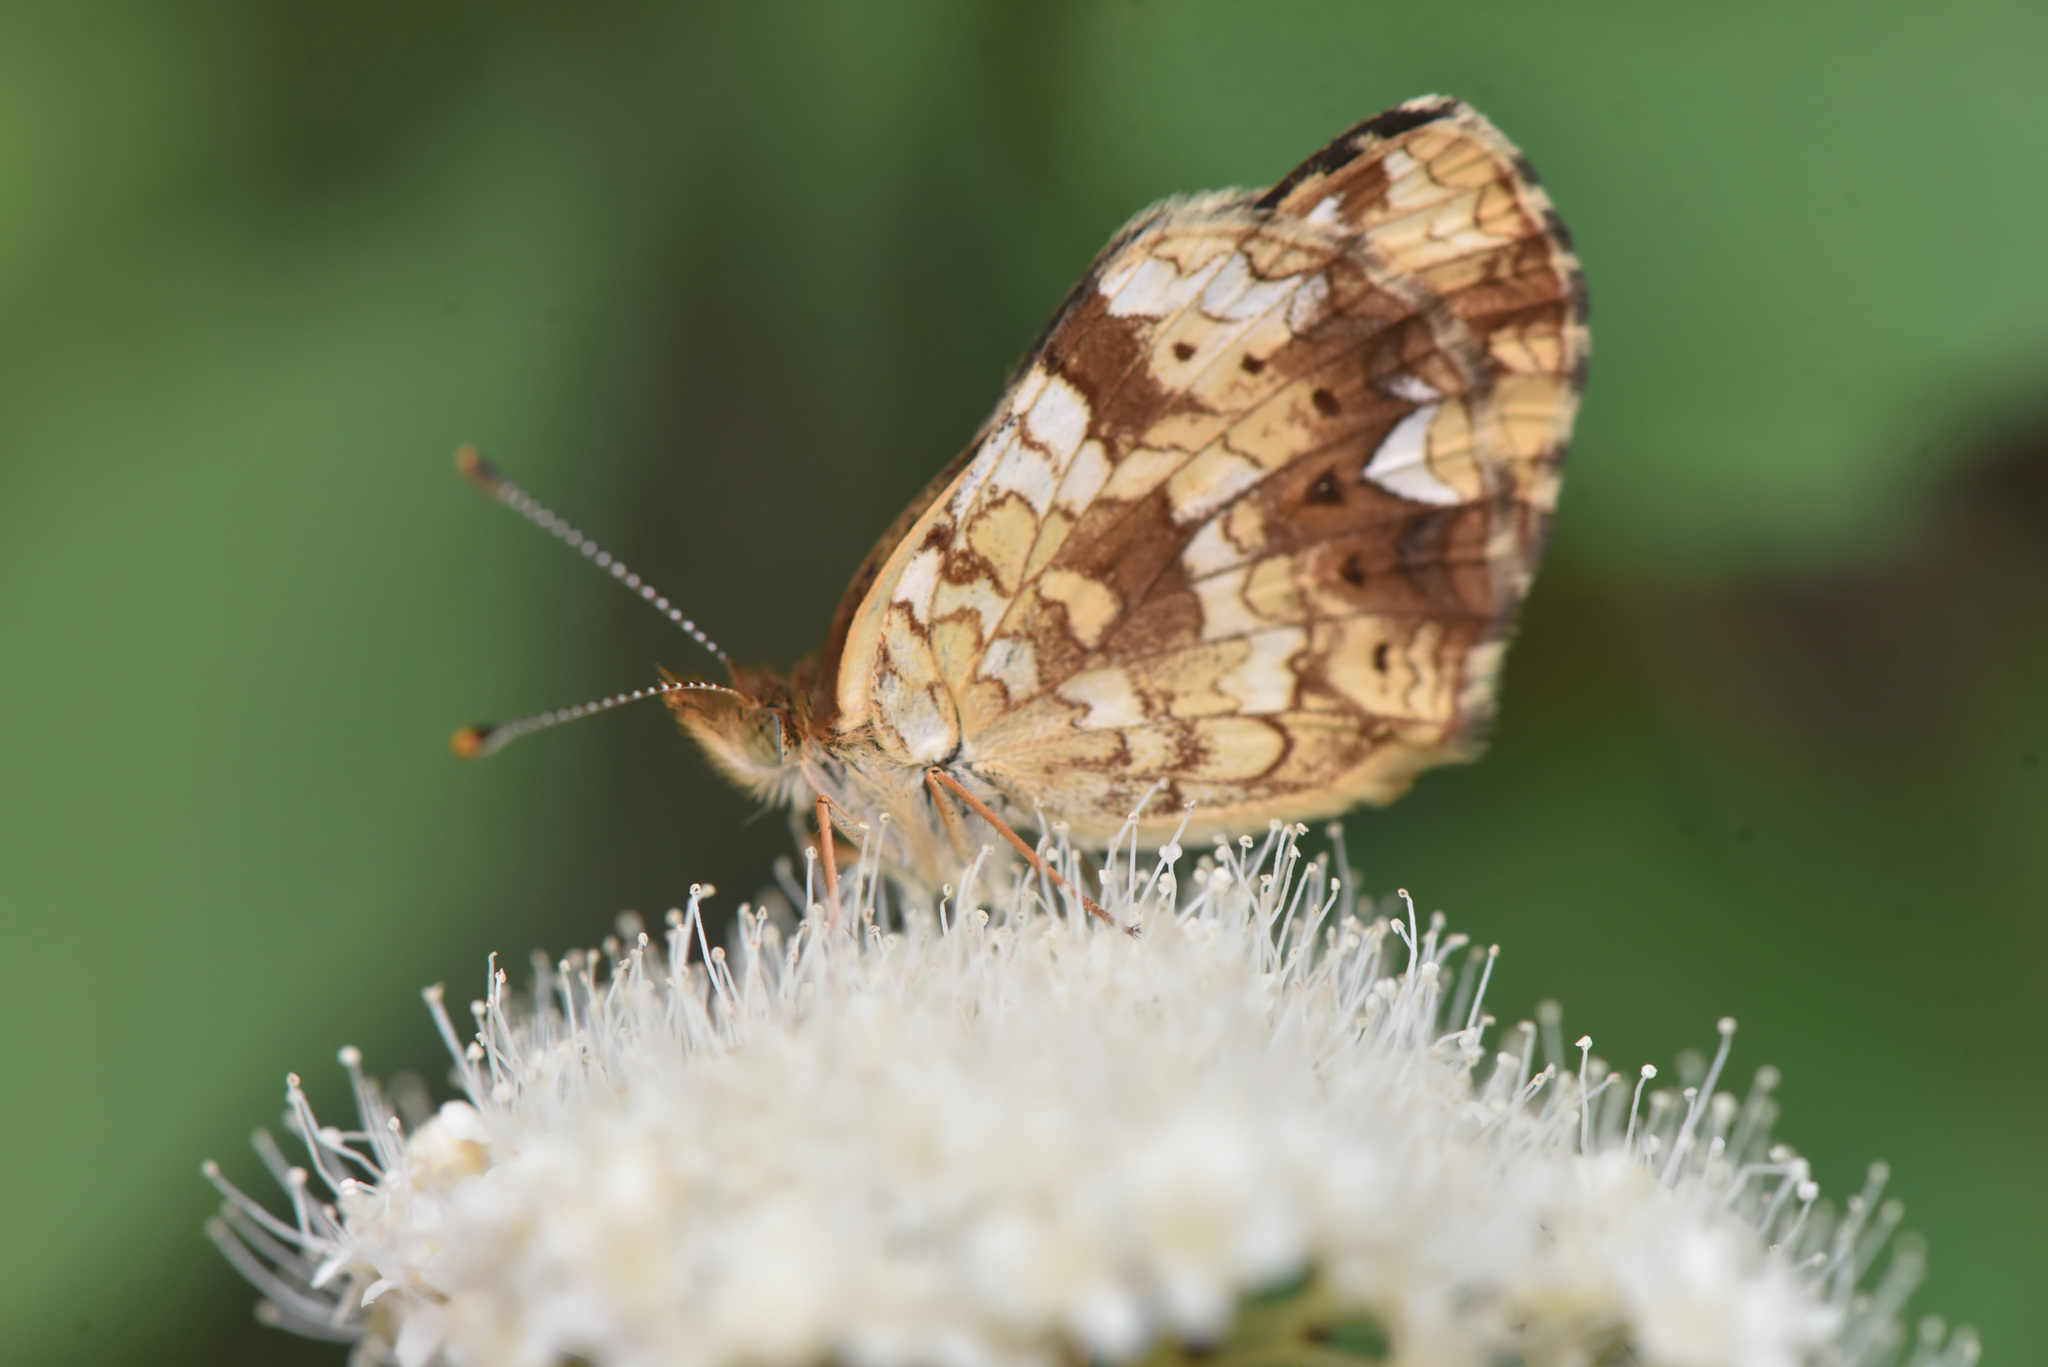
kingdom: Animalia
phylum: Arthropoda
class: Insecta
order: Lepidoptera
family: Nymphalidae
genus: Phyciodes
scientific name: Phyciodes tharos
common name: Pearl crescent
